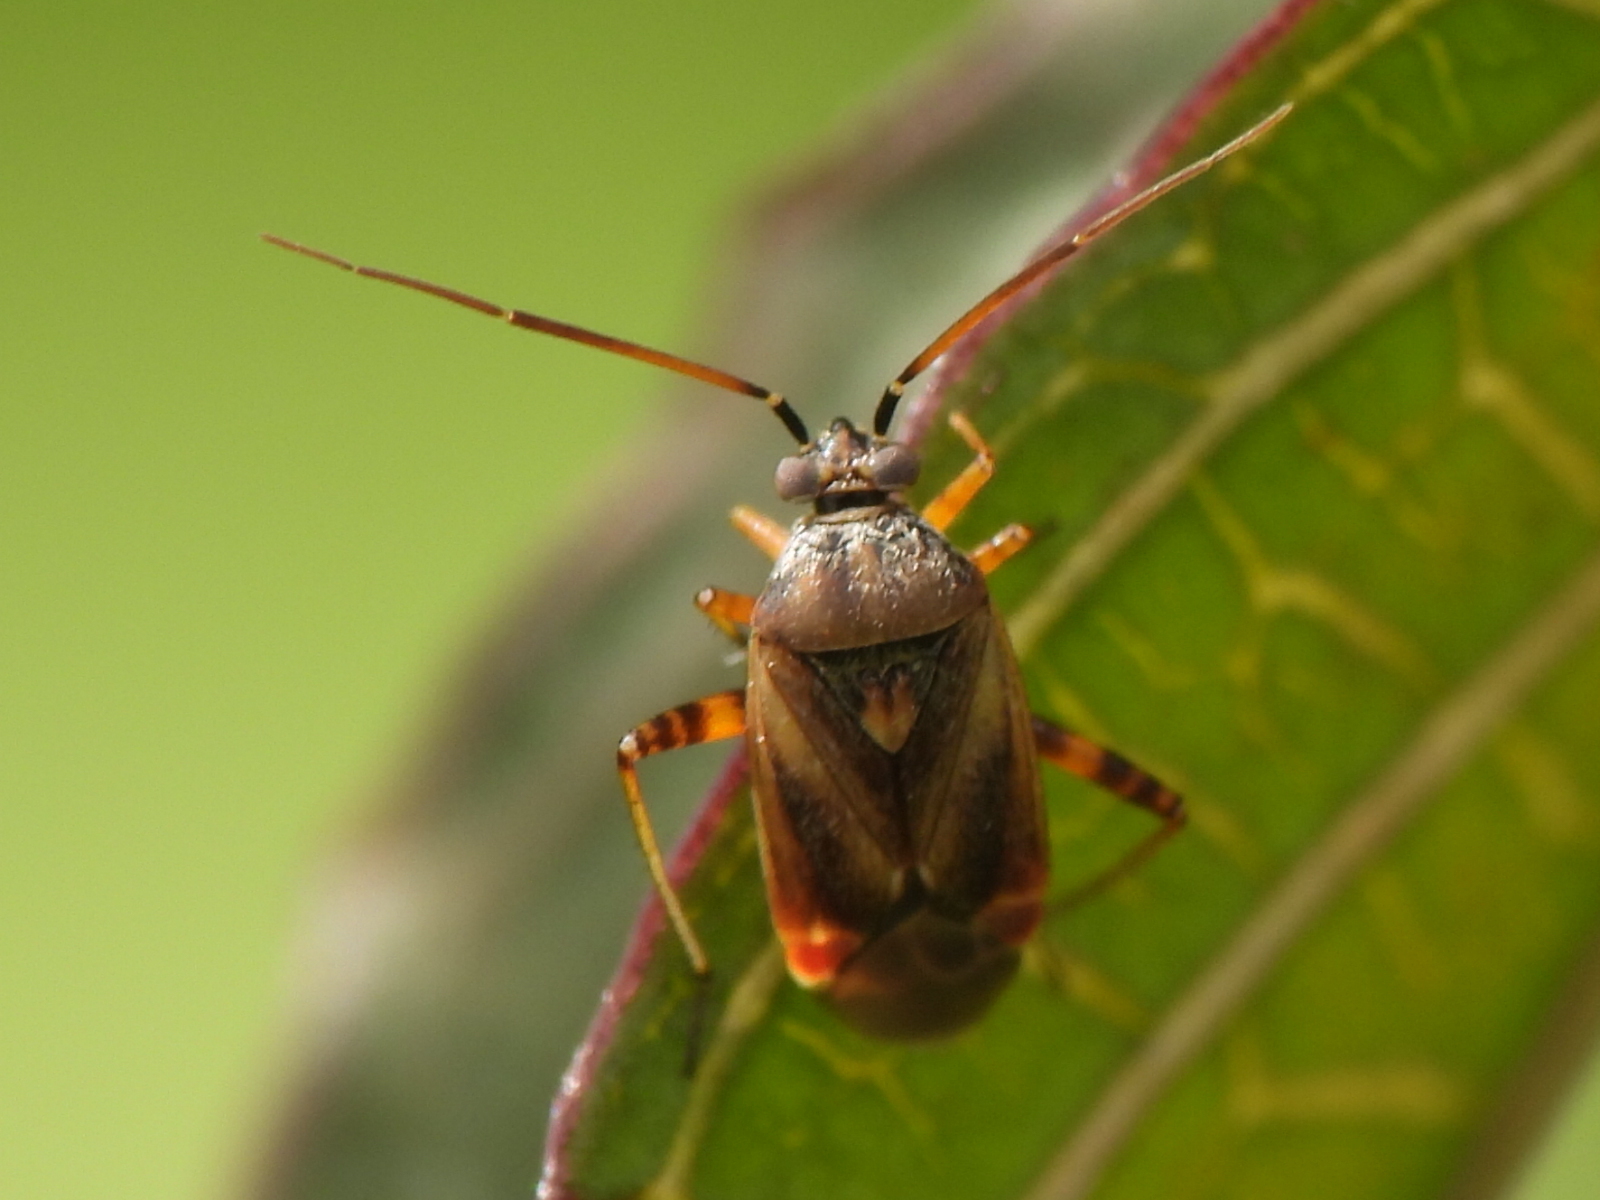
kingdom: Animalia
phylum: Arthropoda
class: Insecta
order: Hemiptera
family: Miridae
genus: Polymerus
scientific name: Polymerus basalis
